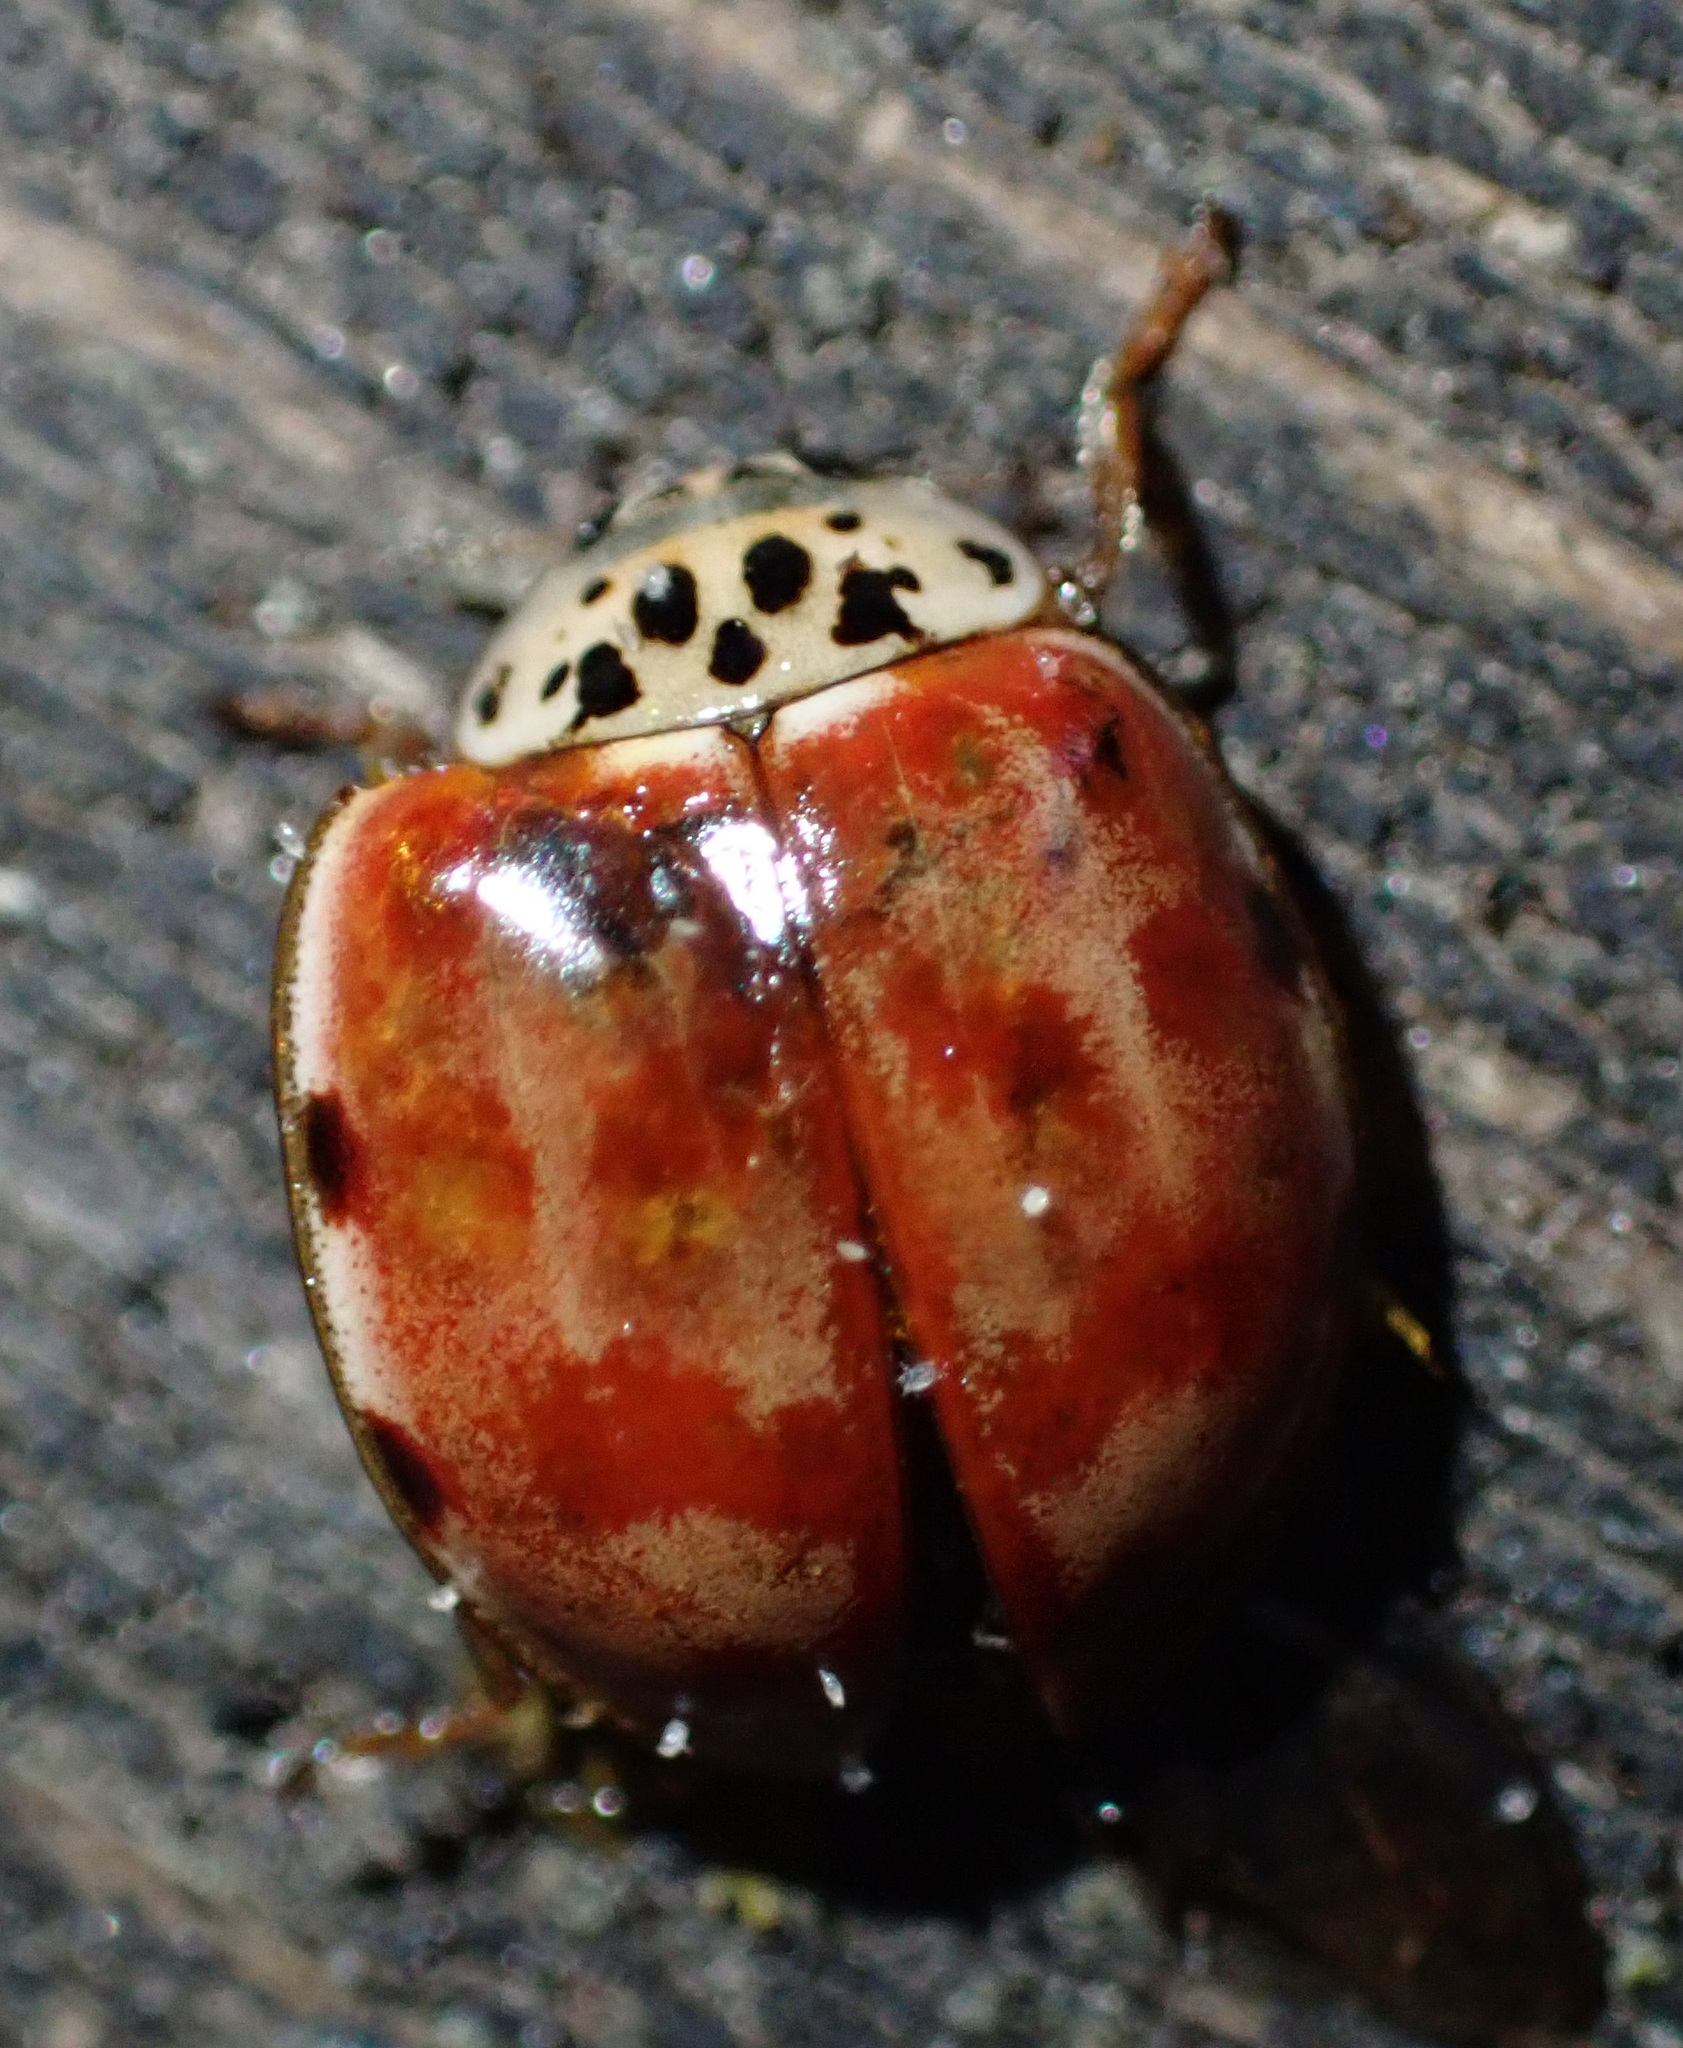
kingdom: Animalia
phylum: Arthropoda
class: Insecta
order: Coleoptera
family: Coccinellidae
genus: Harmonia
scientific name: Harmonia quadripunctata
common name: Cream-streaked ladybird
